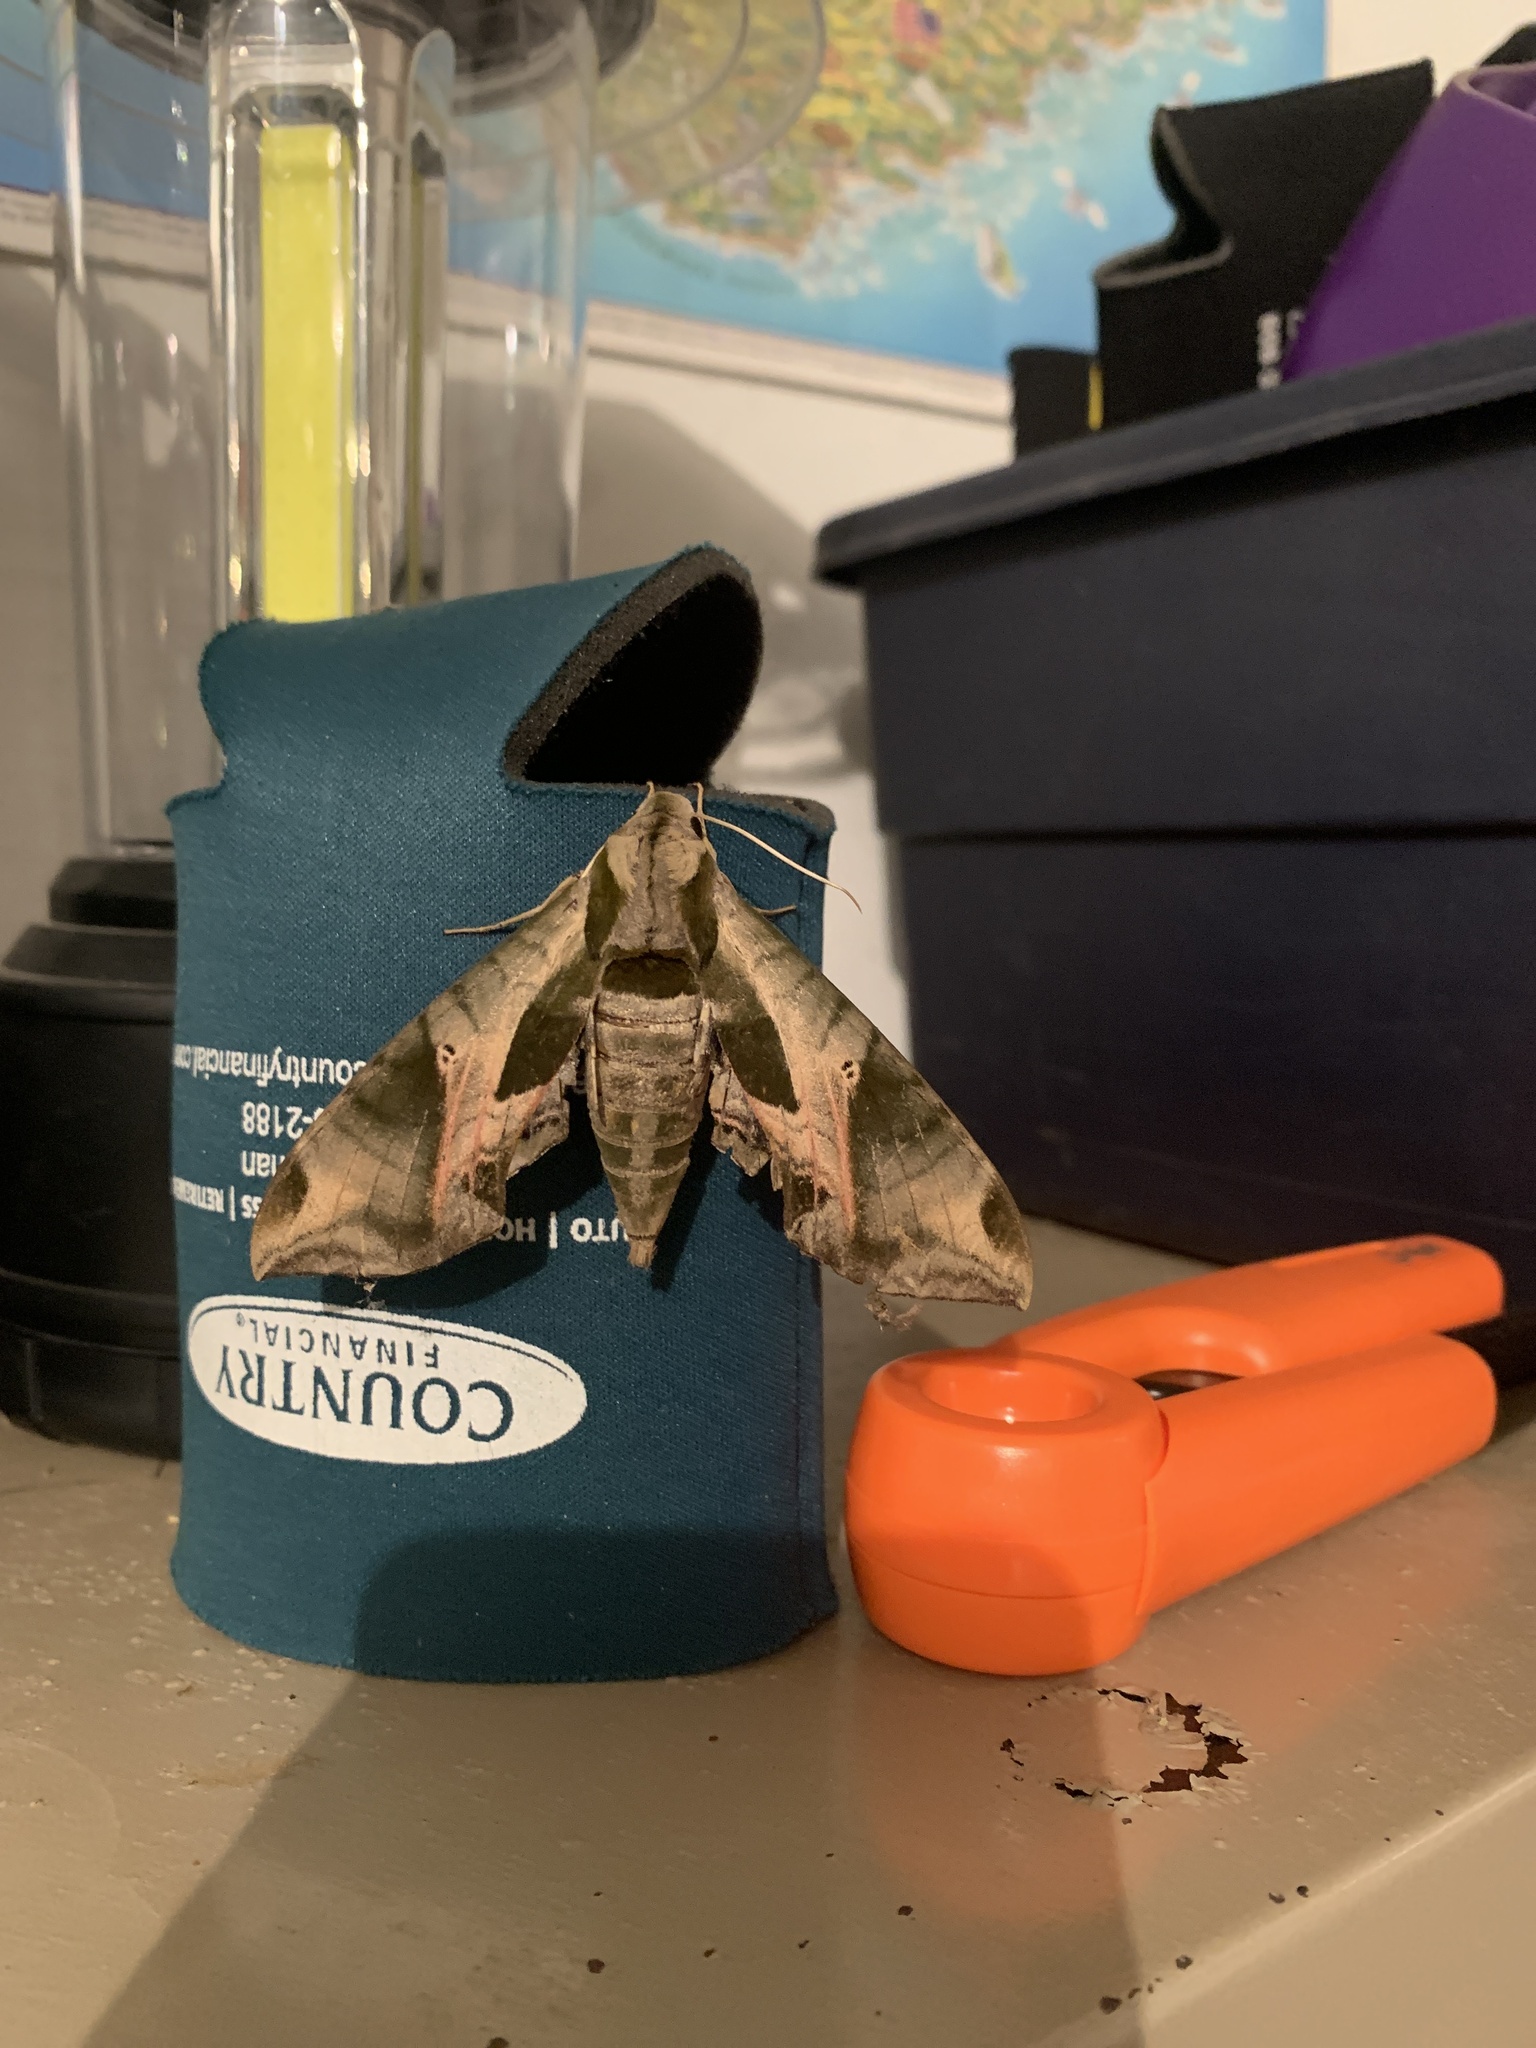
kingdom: Animalia
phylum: Arthropoda
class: Insecta
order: Lepidoptera
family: Sphingidae
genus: Eumorpha
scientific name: Eumorpha pandorus
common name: Pandora sphinx
